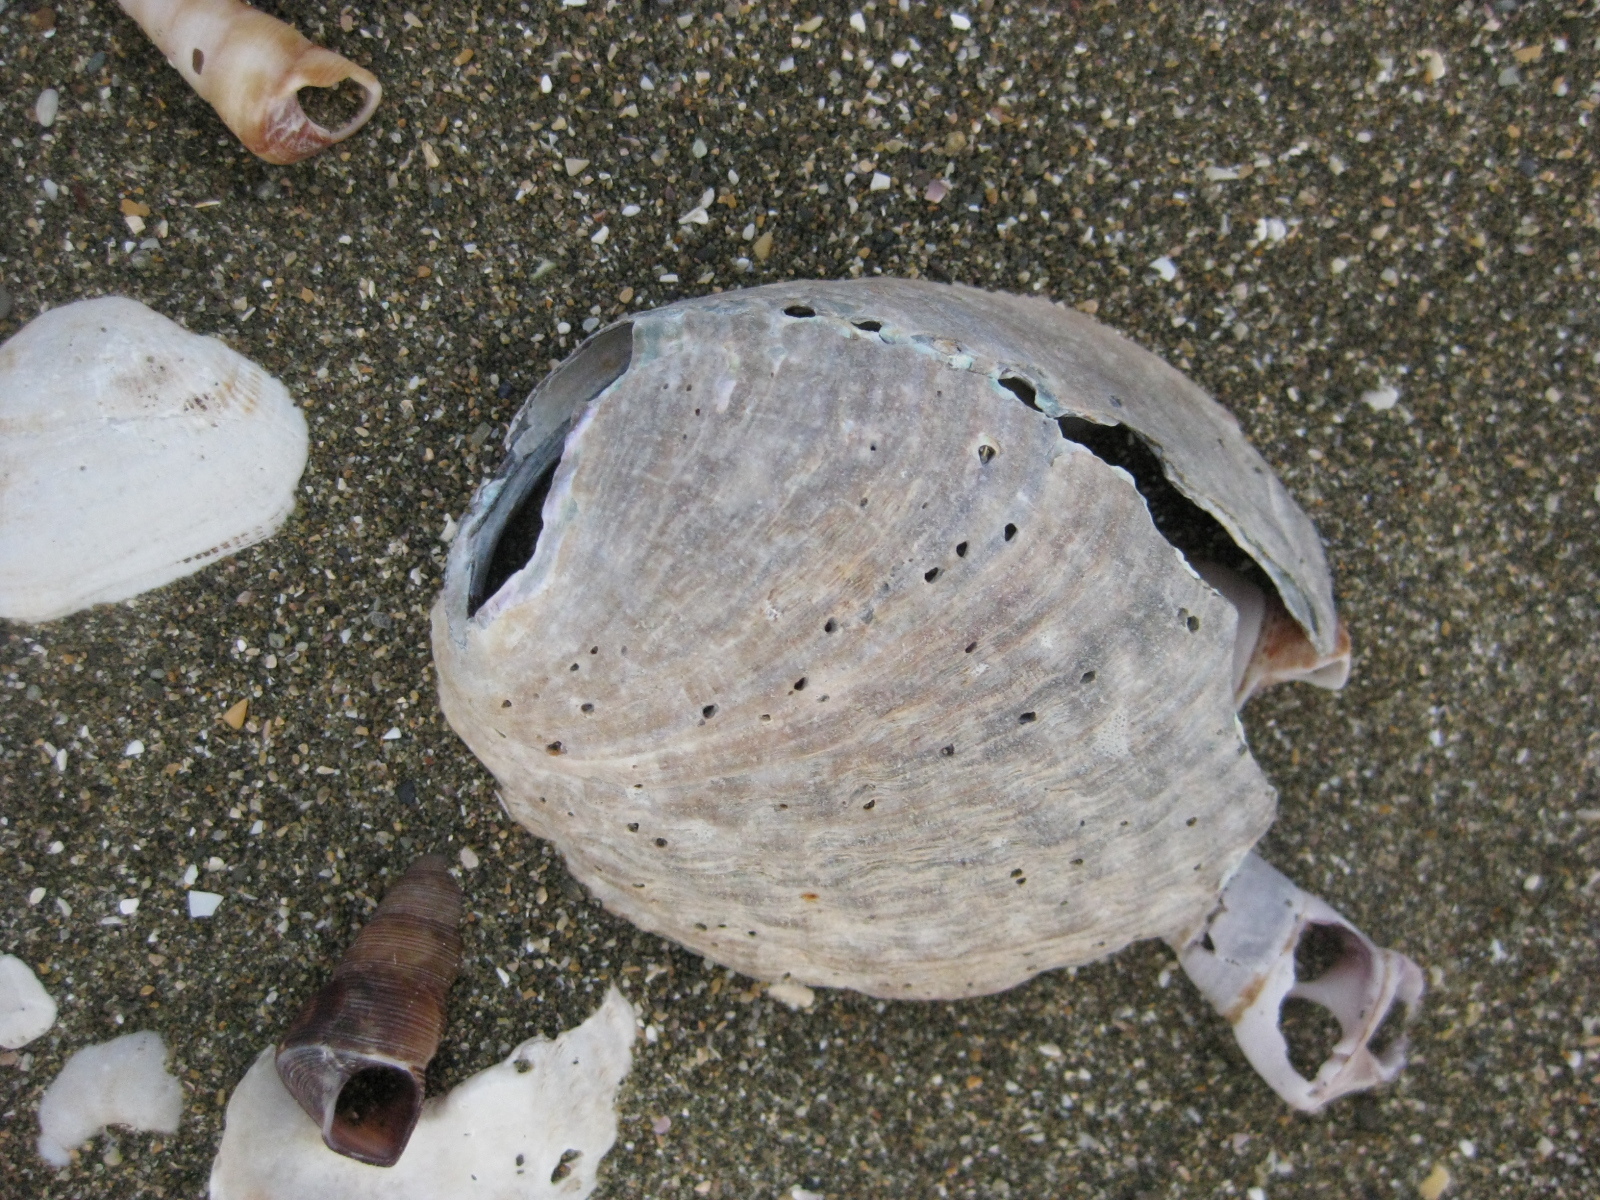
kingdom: Animalia
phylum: Mollusca
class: Gastropoda
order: Lepetellida
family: Haliotidae
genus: Haliotis
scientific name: Haliotis iris
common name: Abalone
